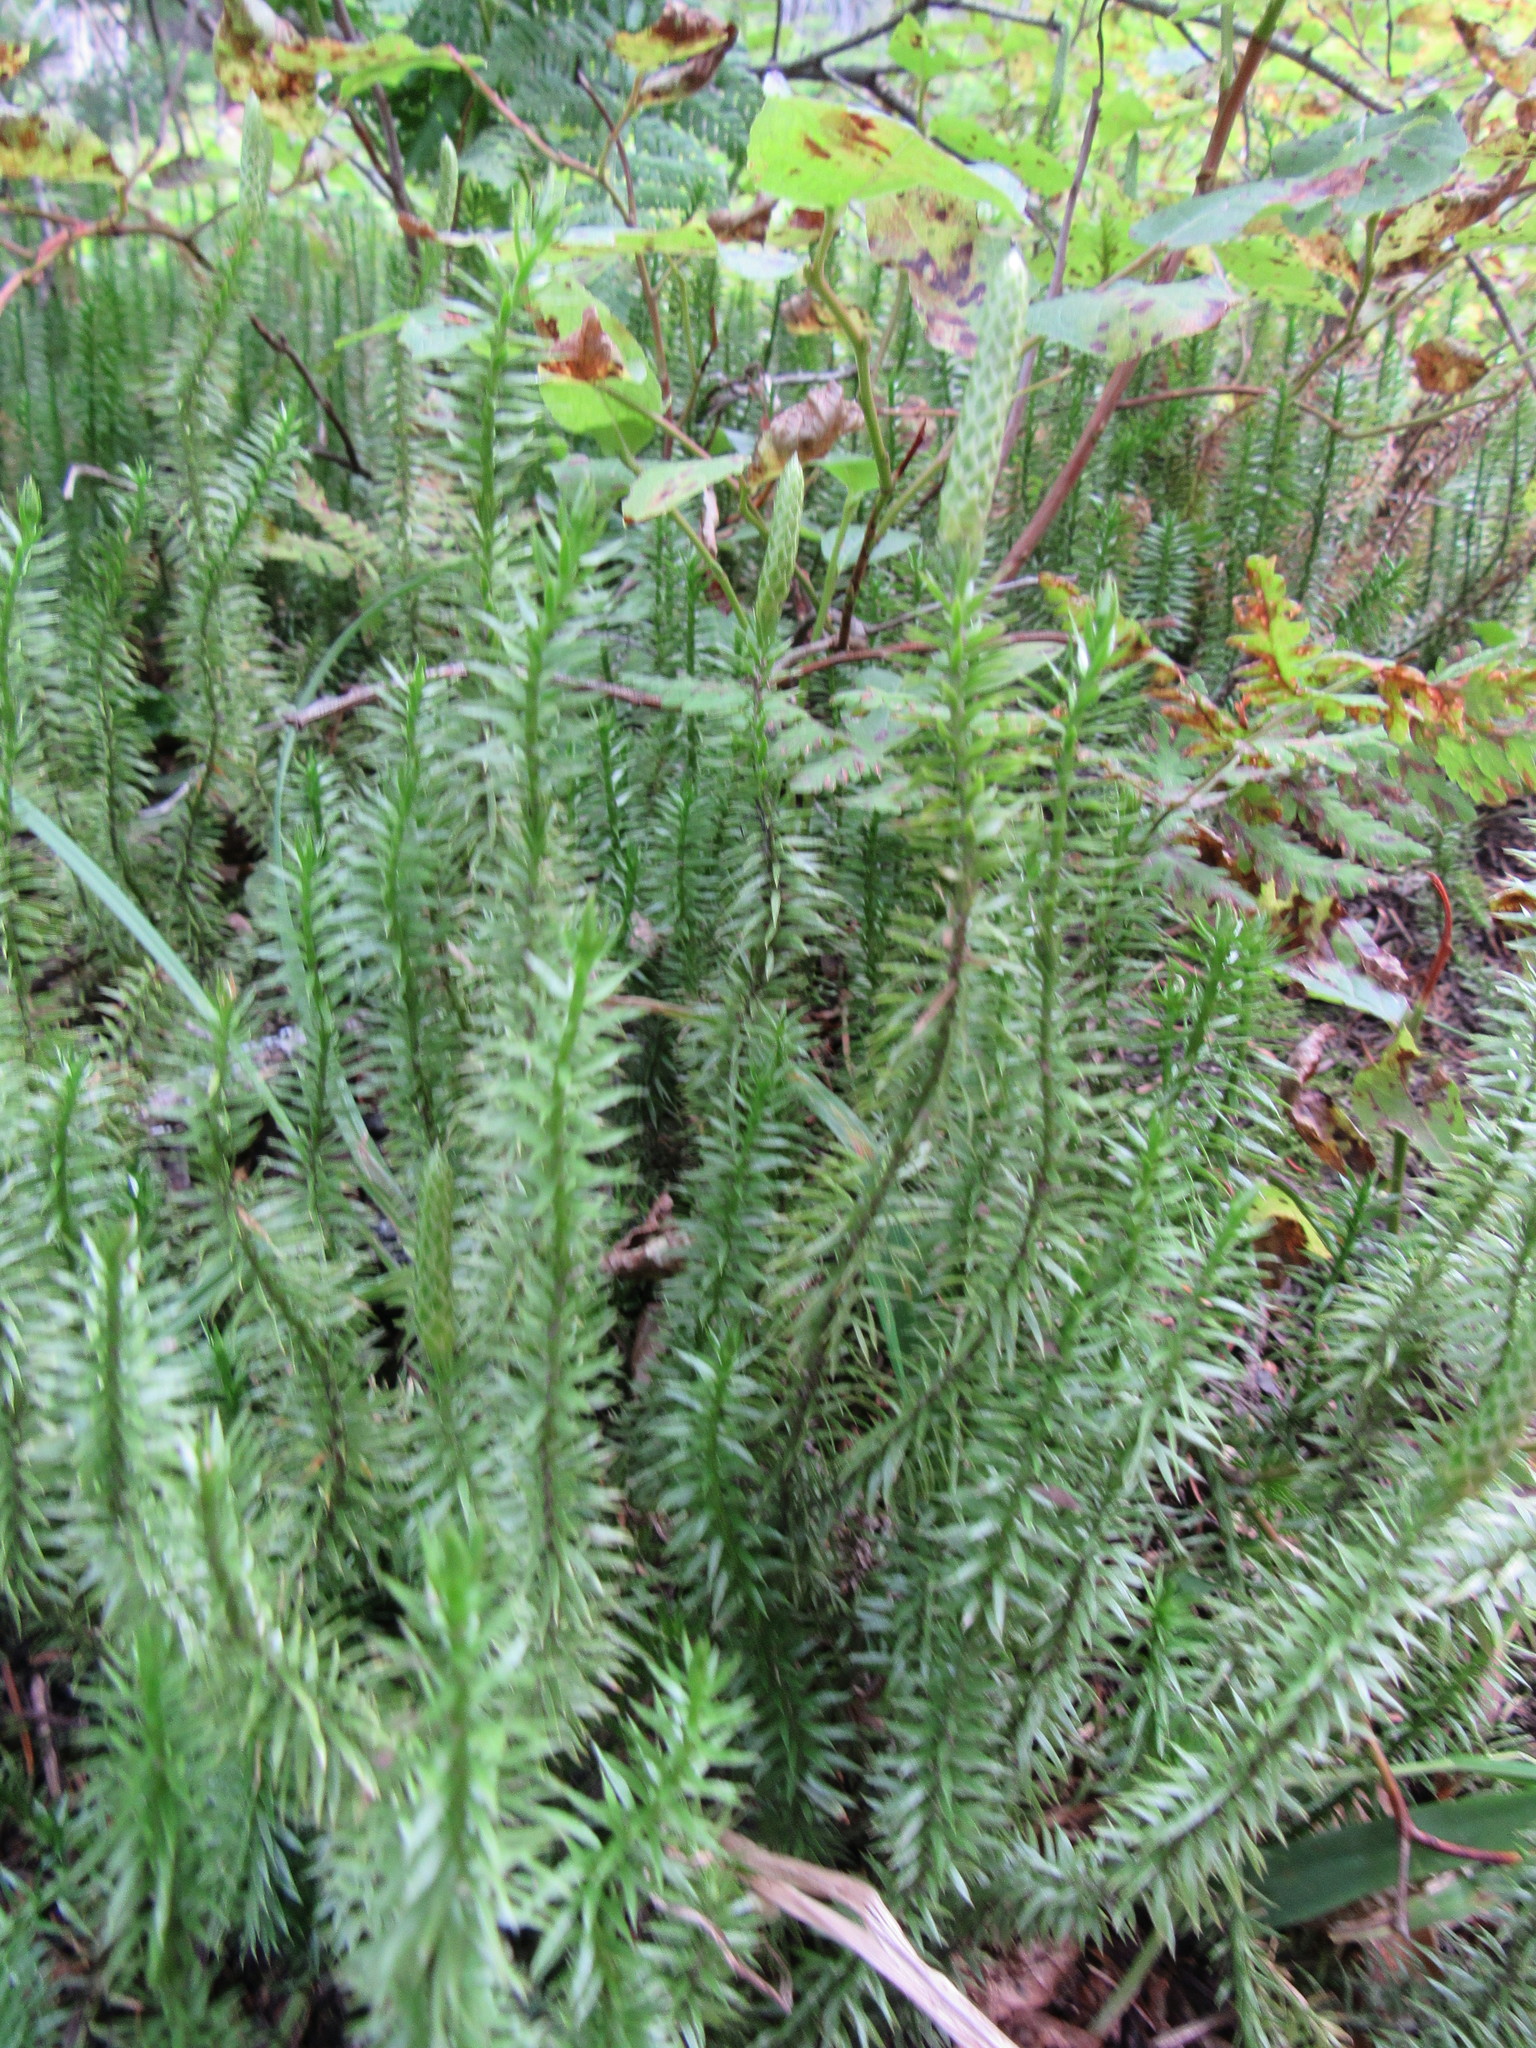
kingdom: Plantae
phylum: Tracheophyta
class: Lycopodiopsida
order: Lycopodiales
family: Lycopodiaceae
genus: Spinulum
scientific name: Spinulum annotinum
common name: Interrupted club-moss
